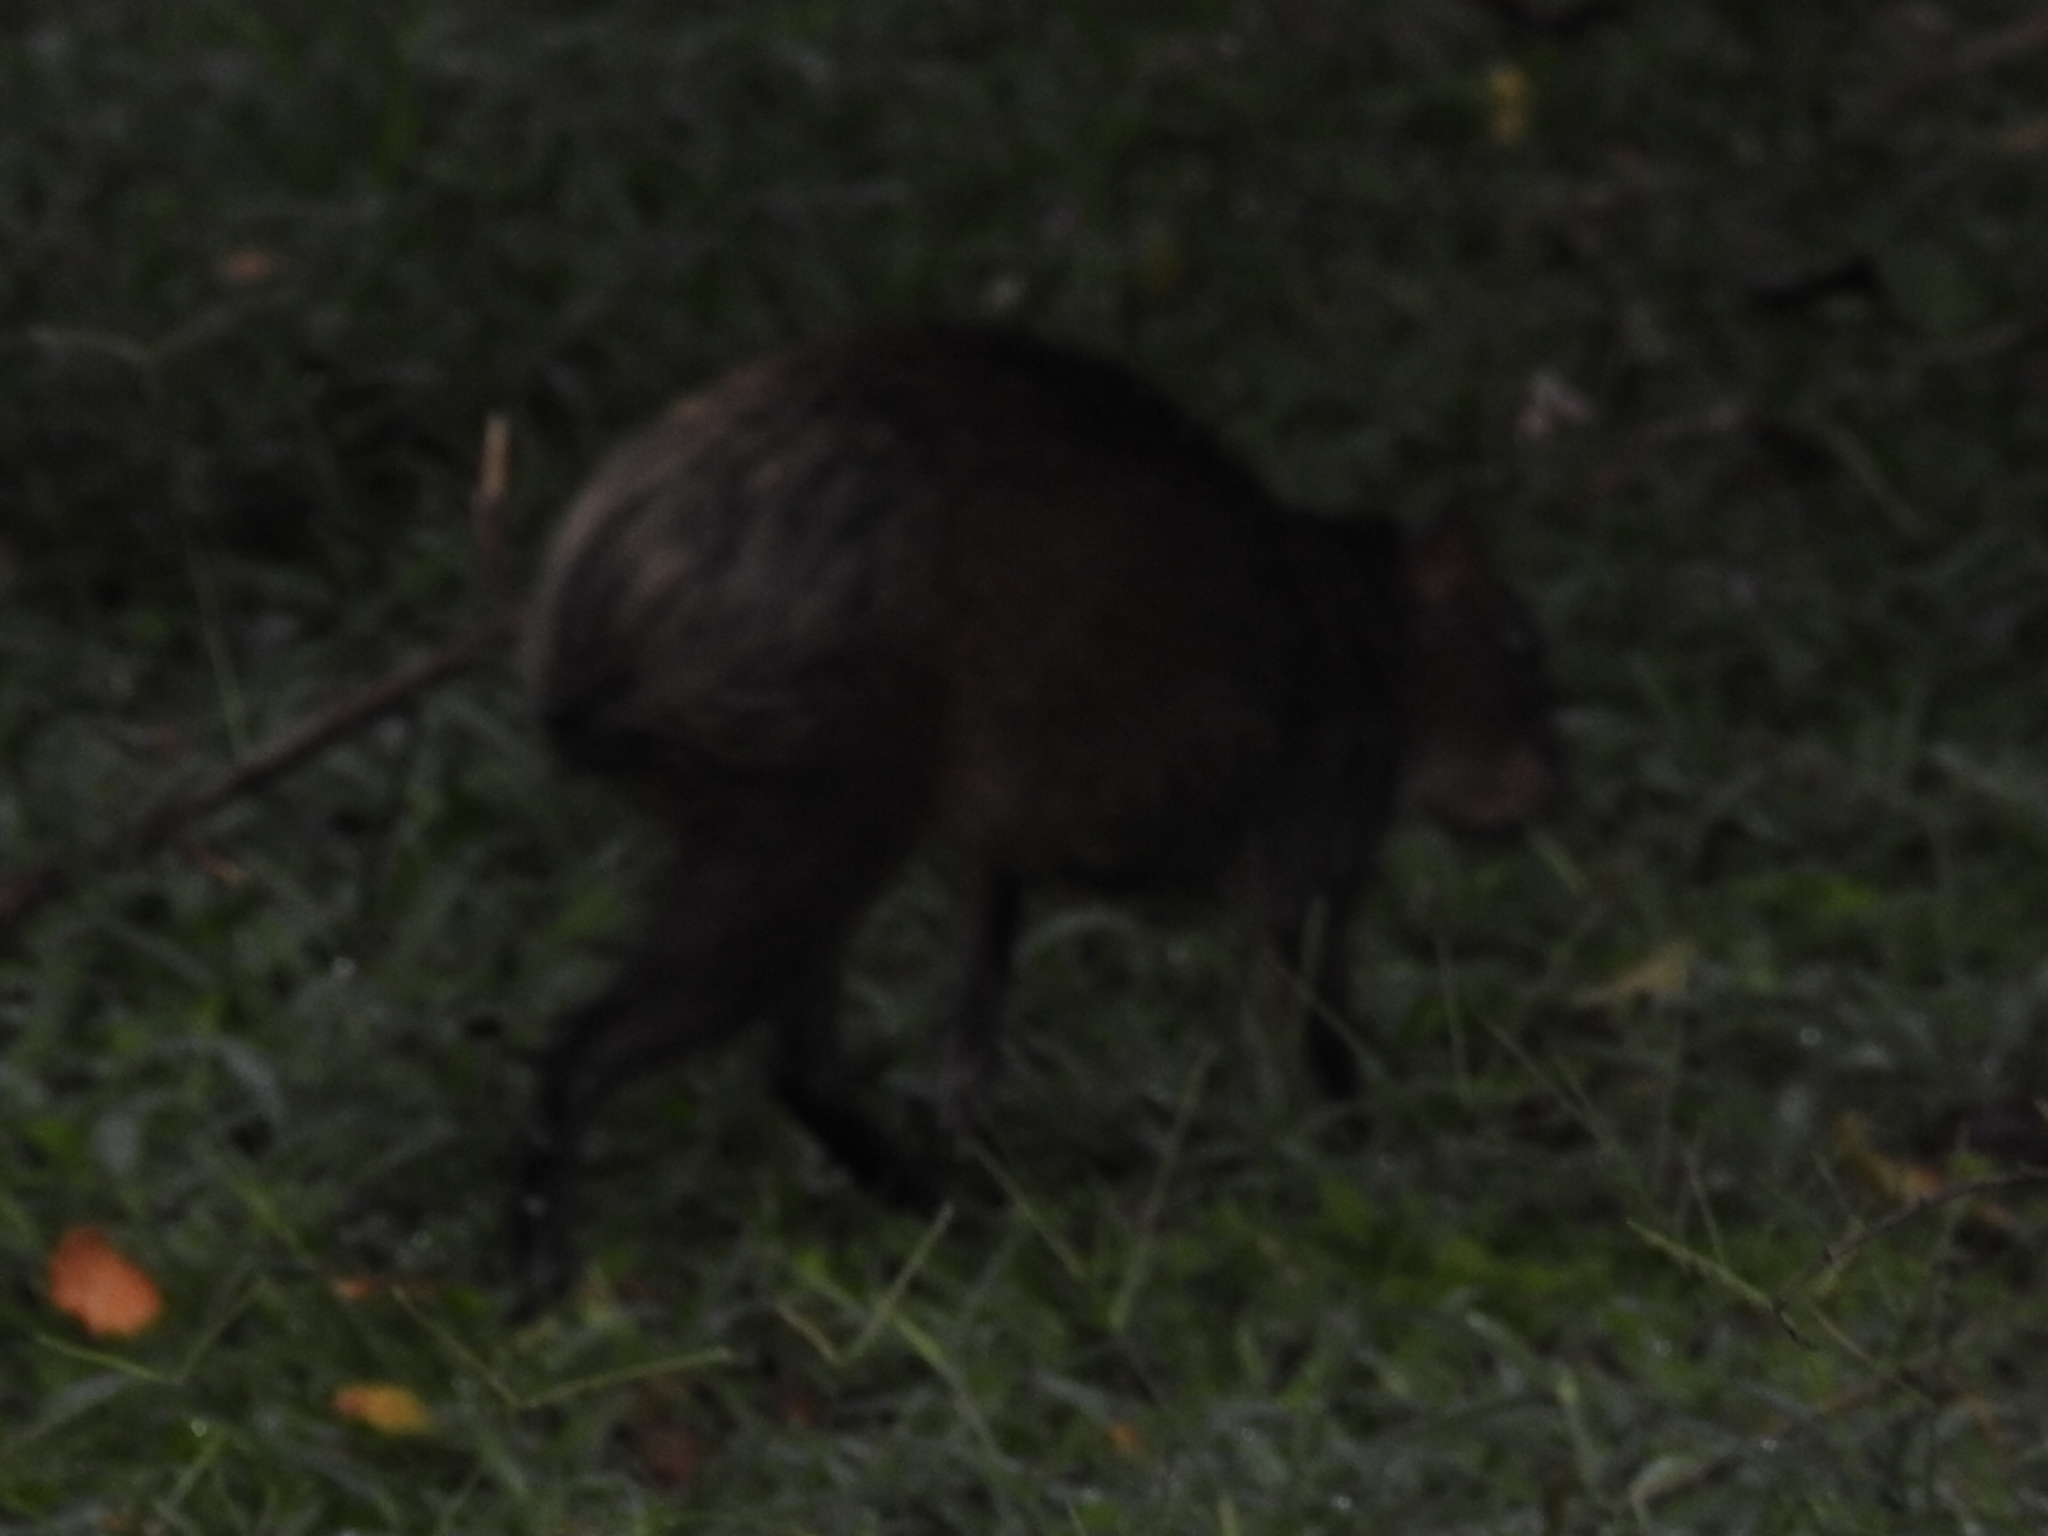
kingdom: Animalia
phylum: Chordata
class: Mammalia
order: Rodentia
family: Dasyproctidae
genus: Dasyprocta
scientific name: Dasyprocta punctata
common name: Central american agouti
